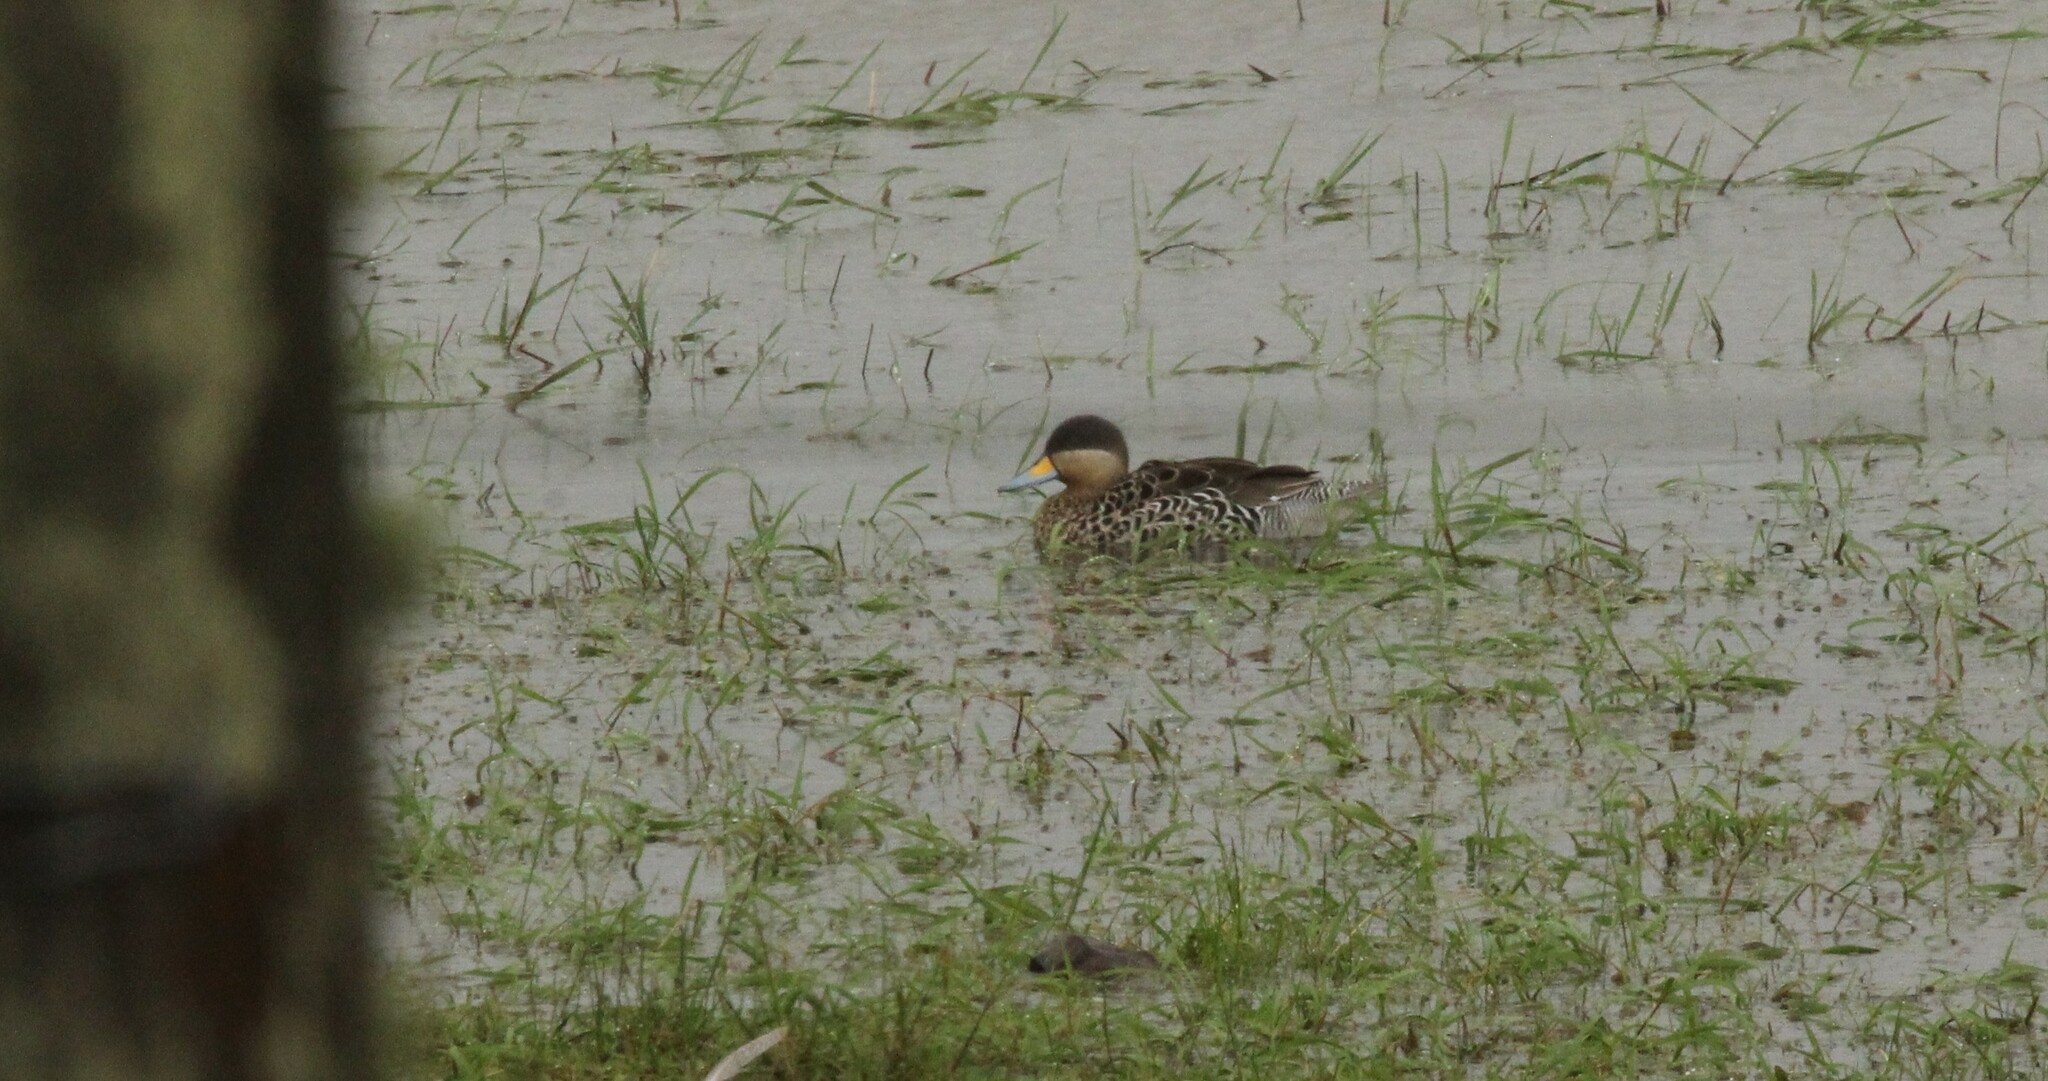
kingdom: Animalia
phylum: Chordata
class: Aves
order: Anseriformes
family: Anatidae
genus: Spatula
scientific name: Spatula versicolor
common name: Silver teal
